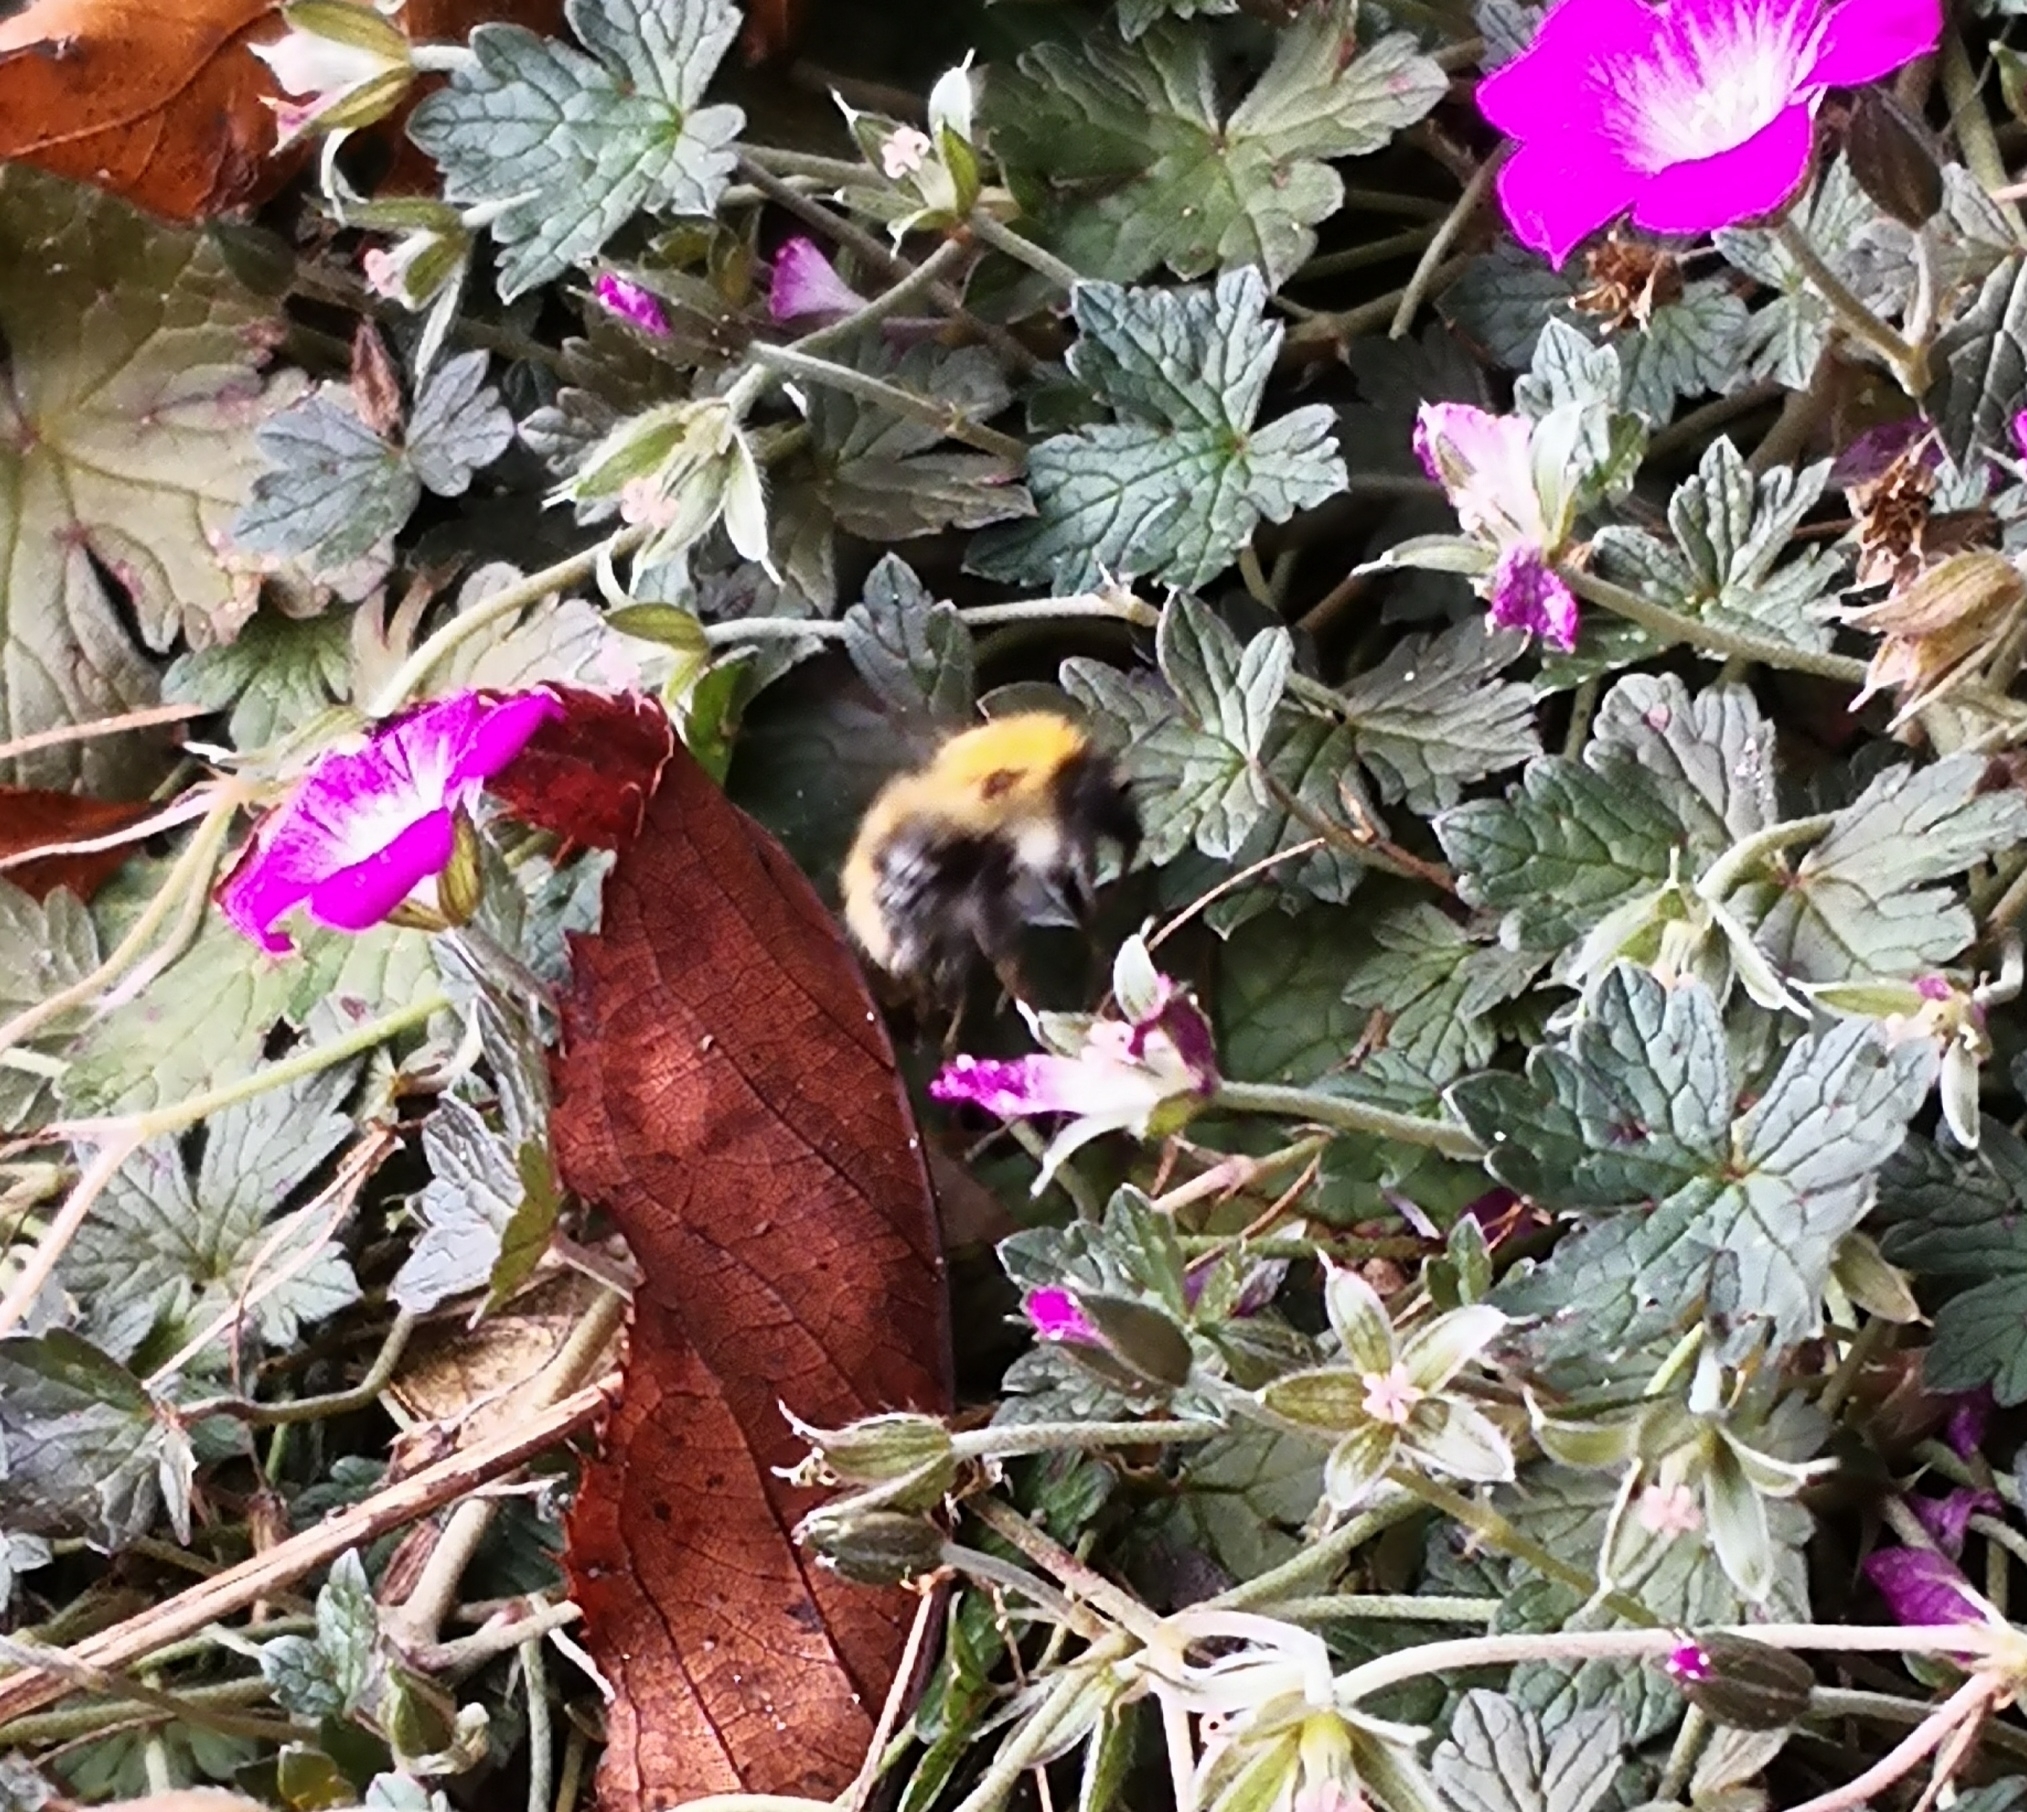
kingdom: Animalia
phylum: Arthropoda
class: Insecta
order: Hymenoptera
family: Apidae
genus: Bombus
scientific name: Bombus pascuorum
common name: Common carder bee
